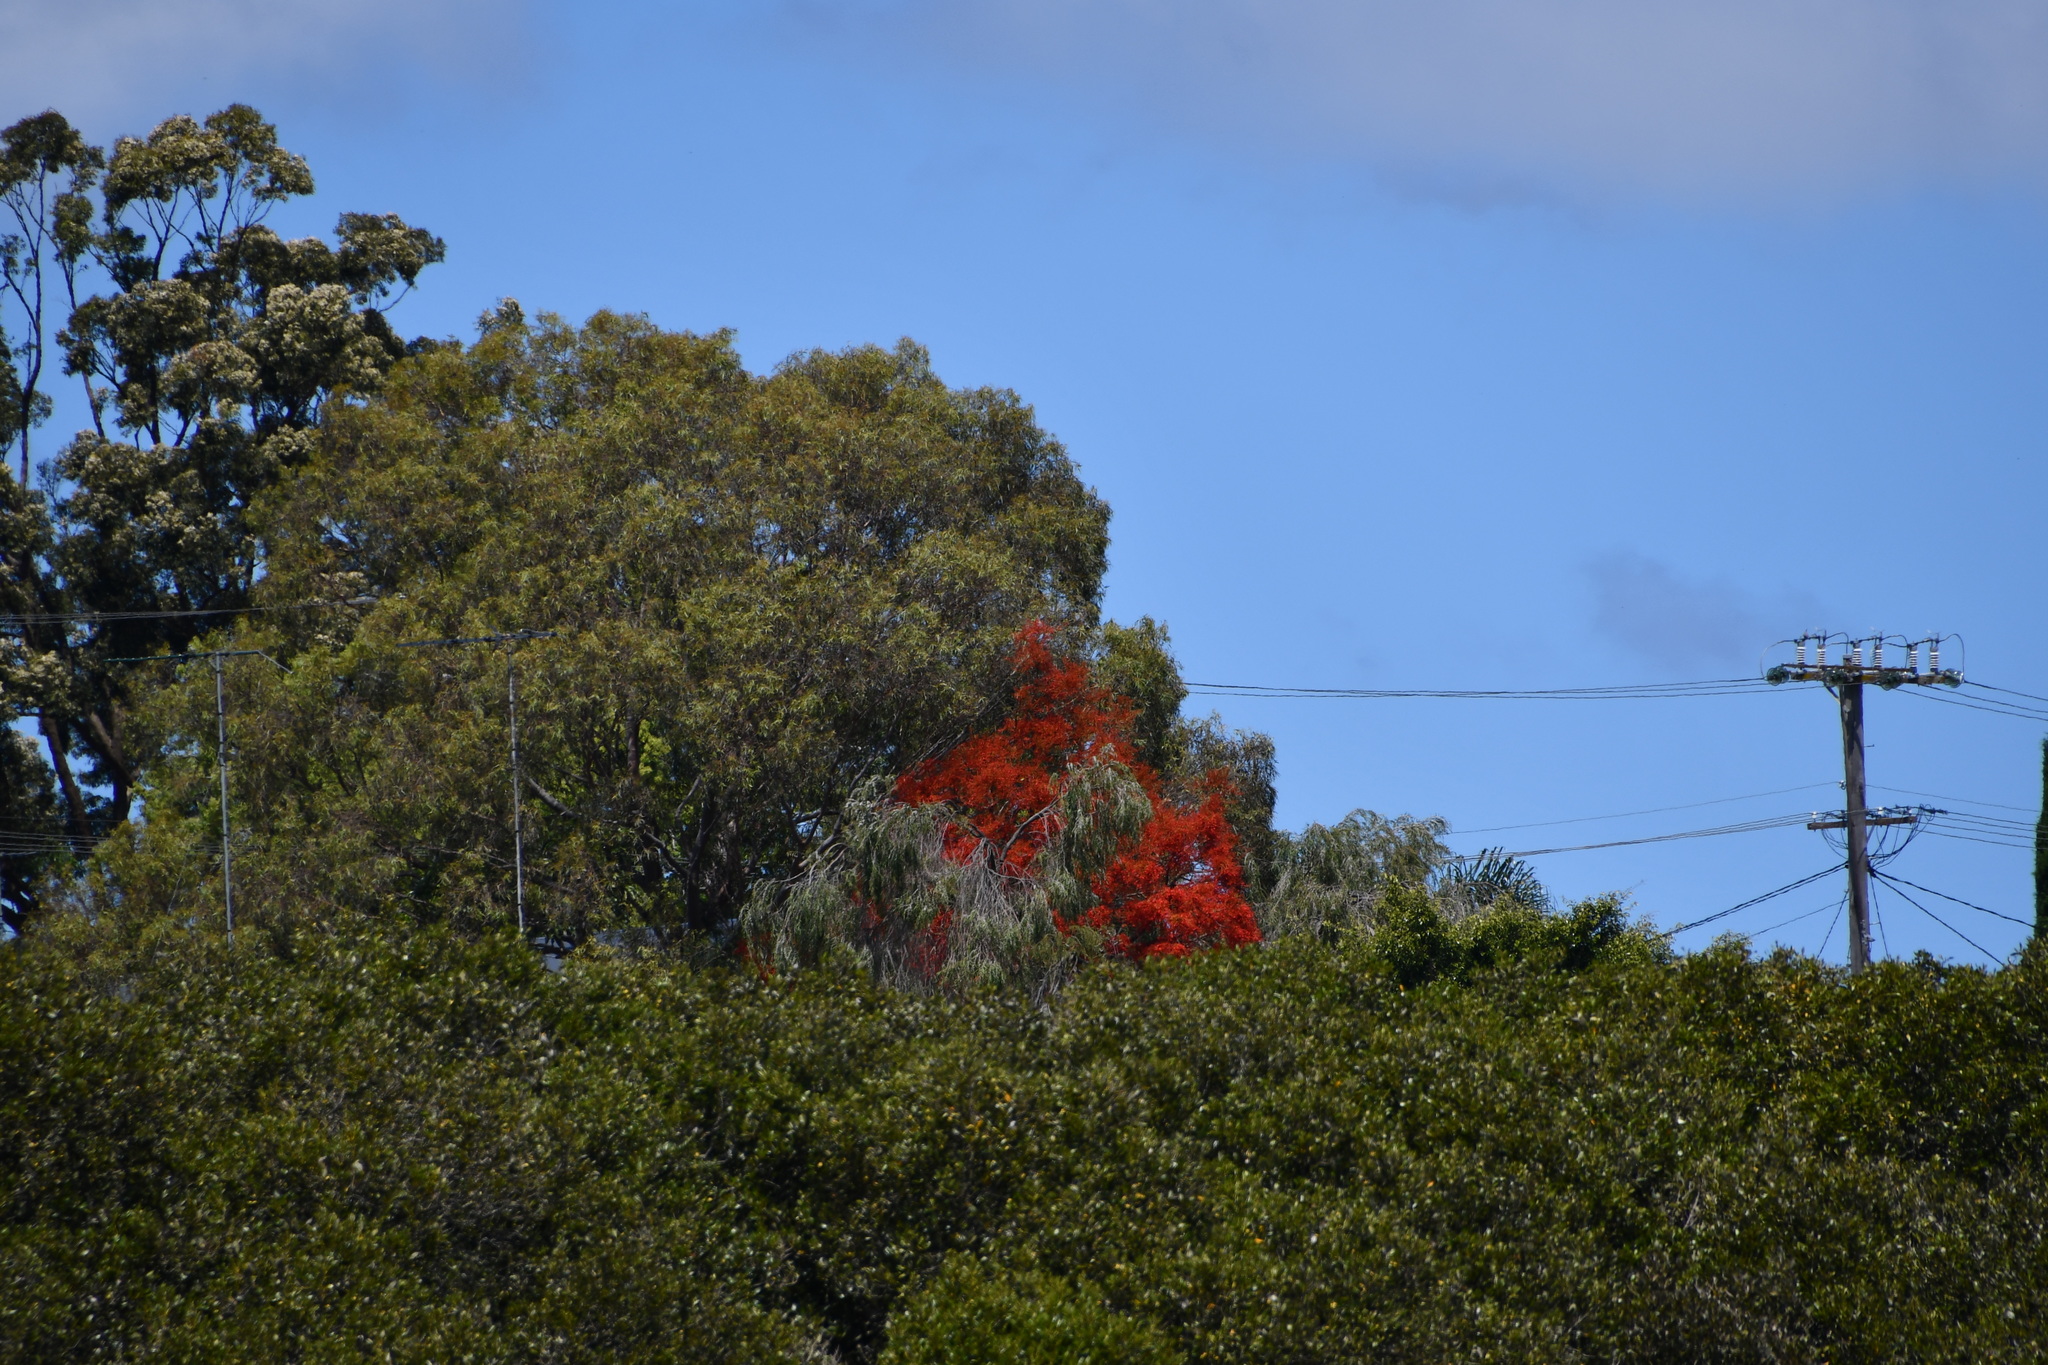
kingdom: Plantae
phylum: Tracheophyta
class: Magnoliopsida
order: Malvales
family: Malvaceae
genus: Brachychiton
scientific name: Brachychiton acerifolius
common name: Illawarra flame tree
